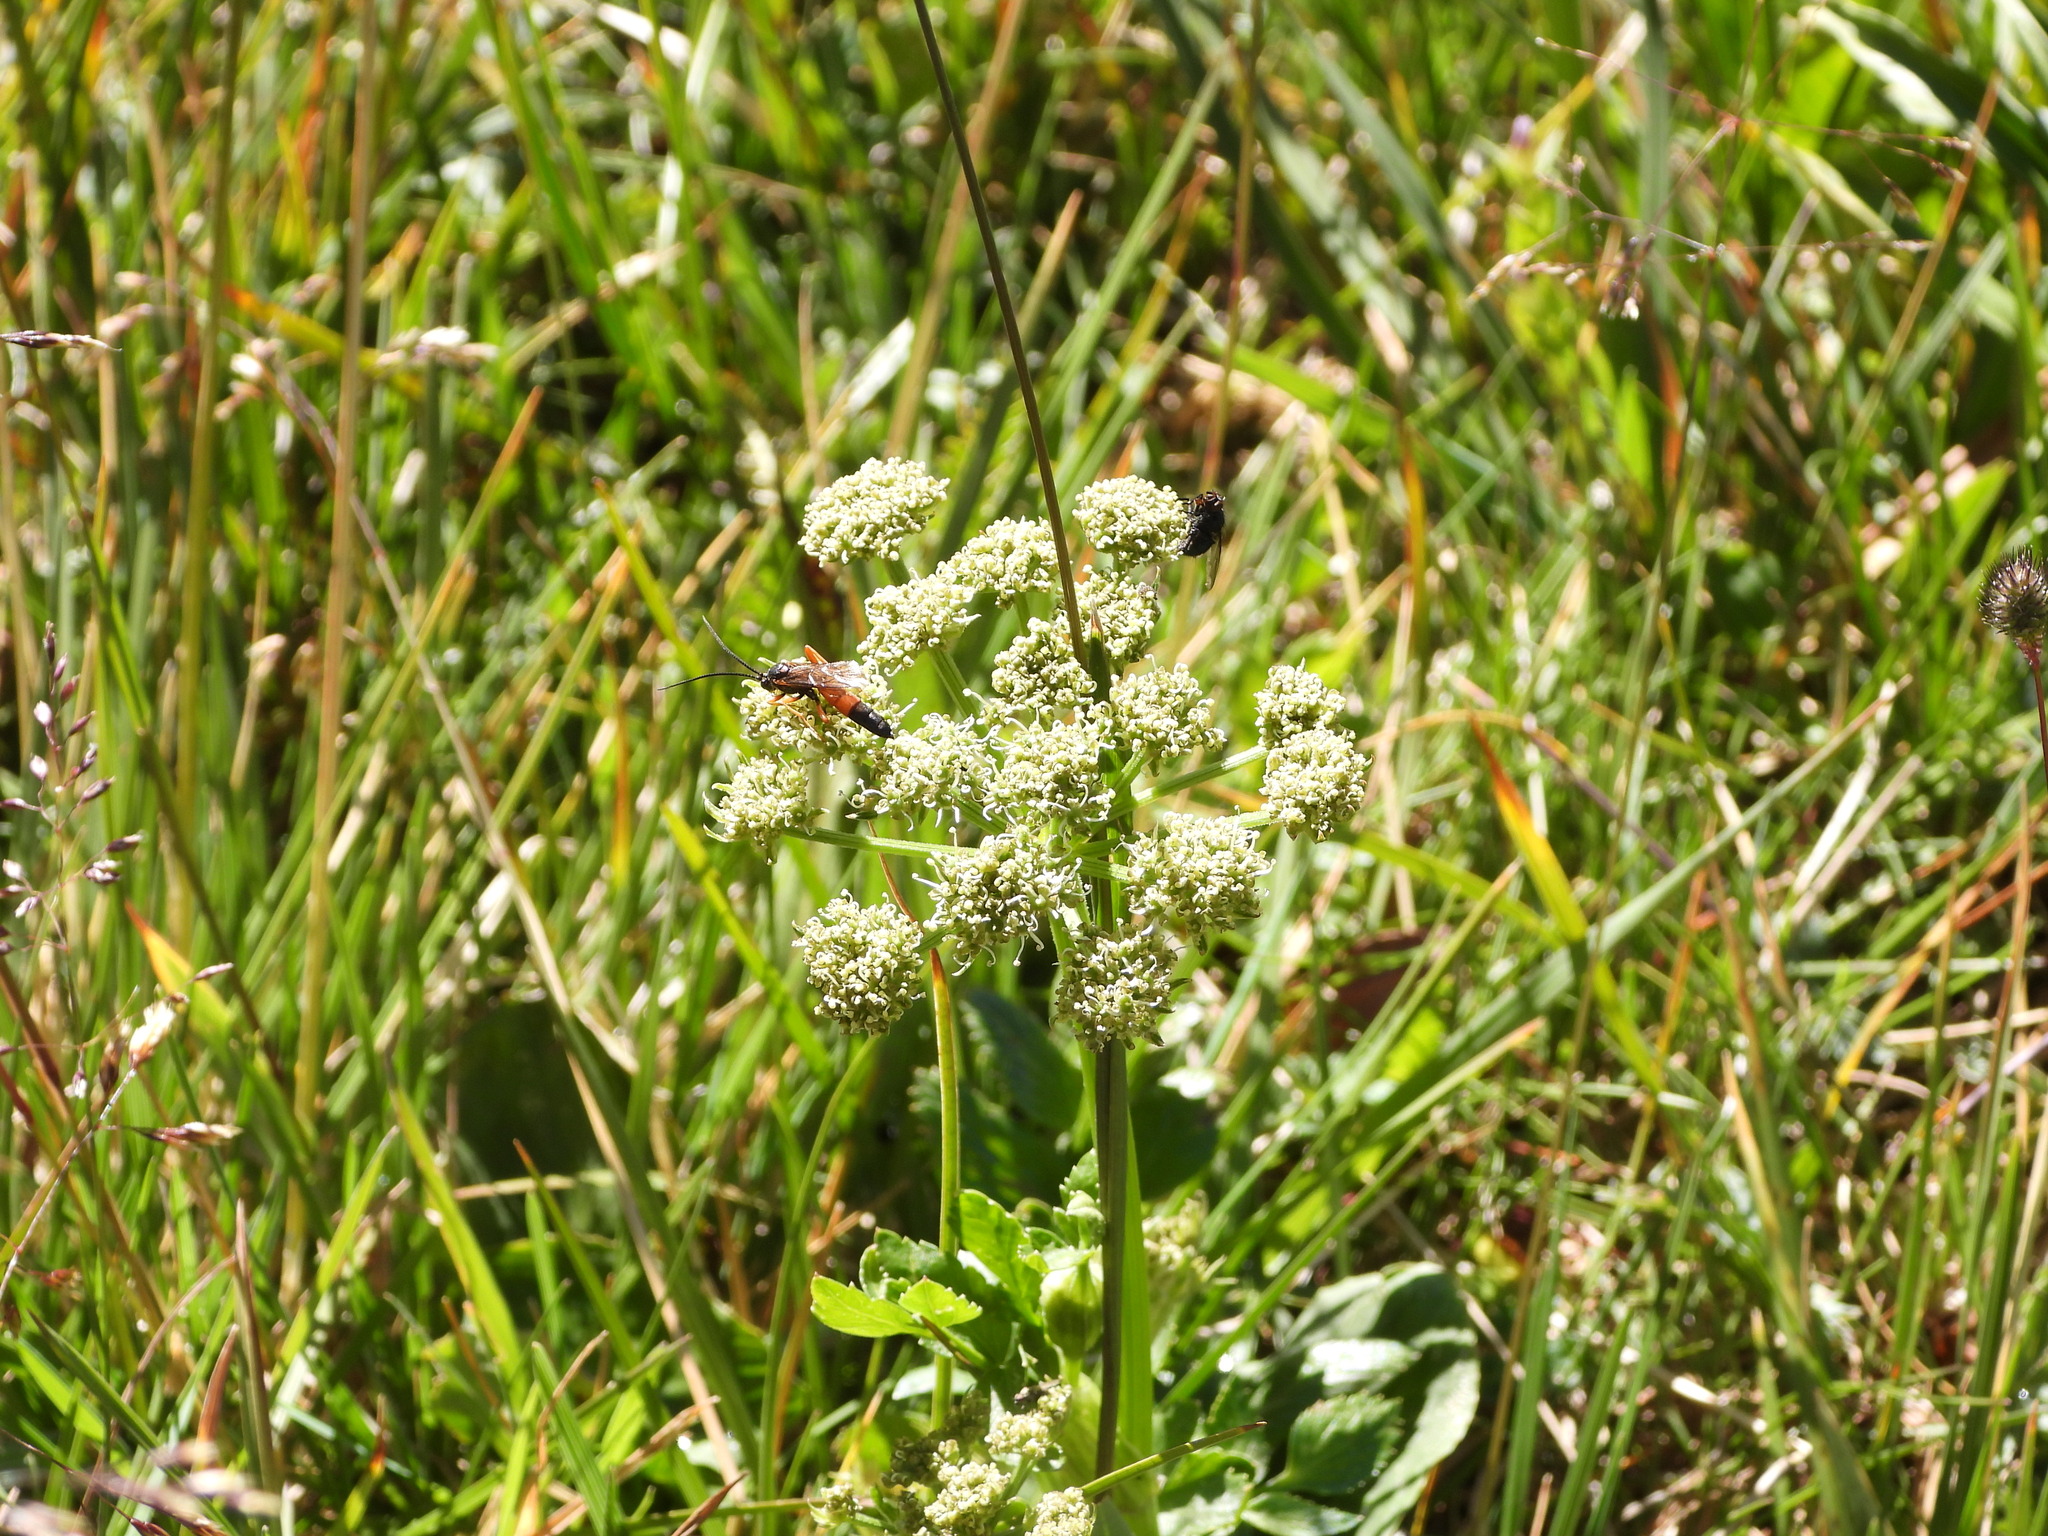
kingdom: Plantae
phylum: Tracheophyta
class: Magnoliopsida
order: Apiales
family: Apiaceae
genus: Angelica
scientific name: Angelica grayi
